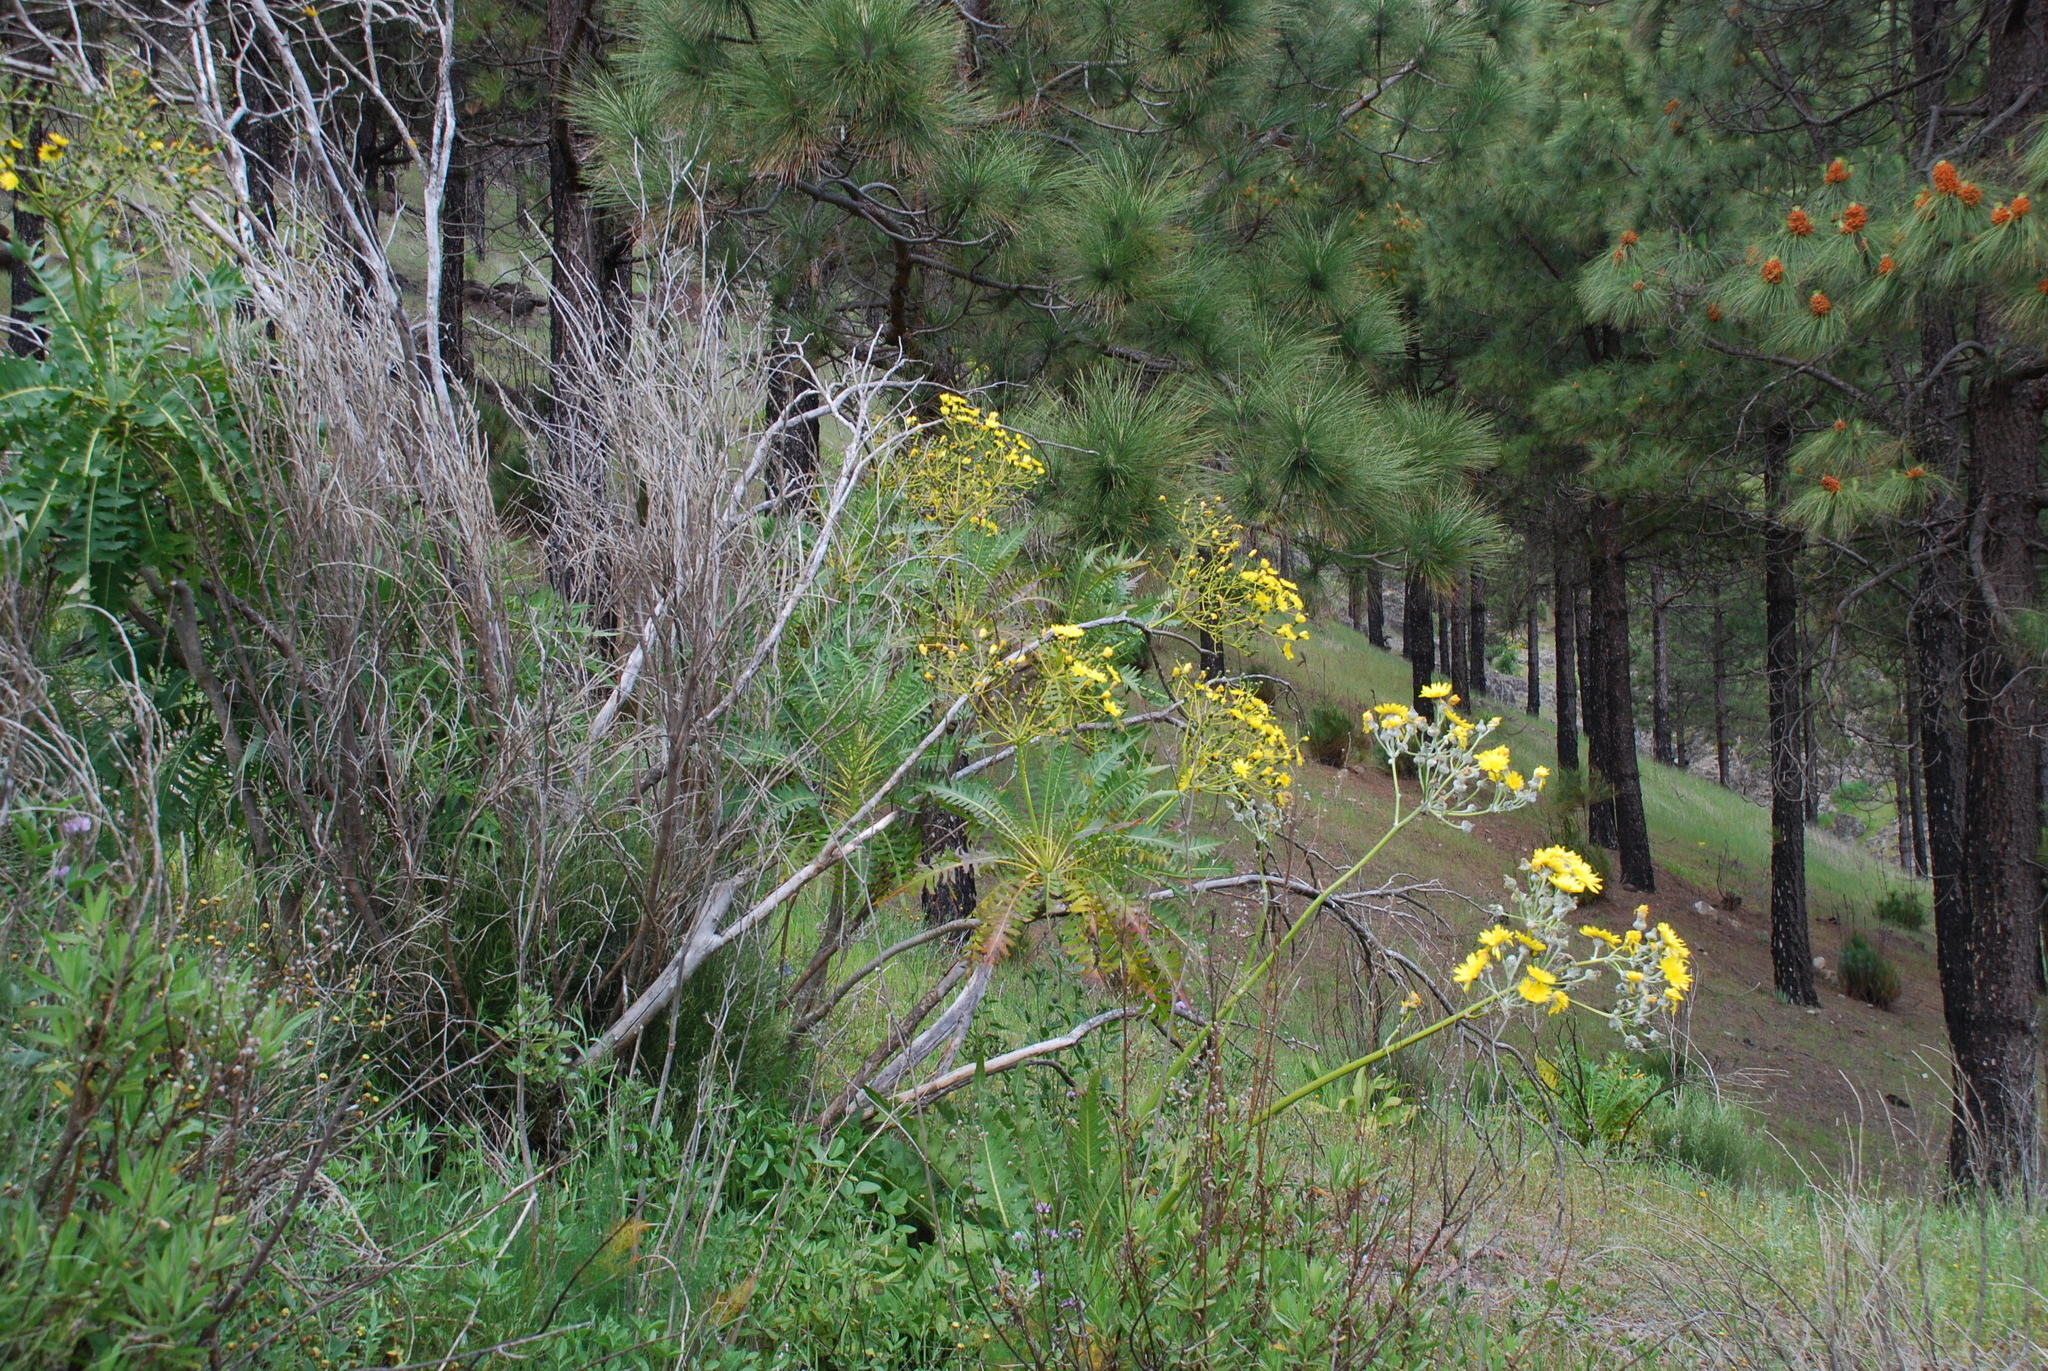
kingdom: Plantae
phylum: Tracheophyta
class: Magnoliopsida
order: Asterales
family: Asteraceae
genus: Sonchus
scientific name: Sonchus canariensis
